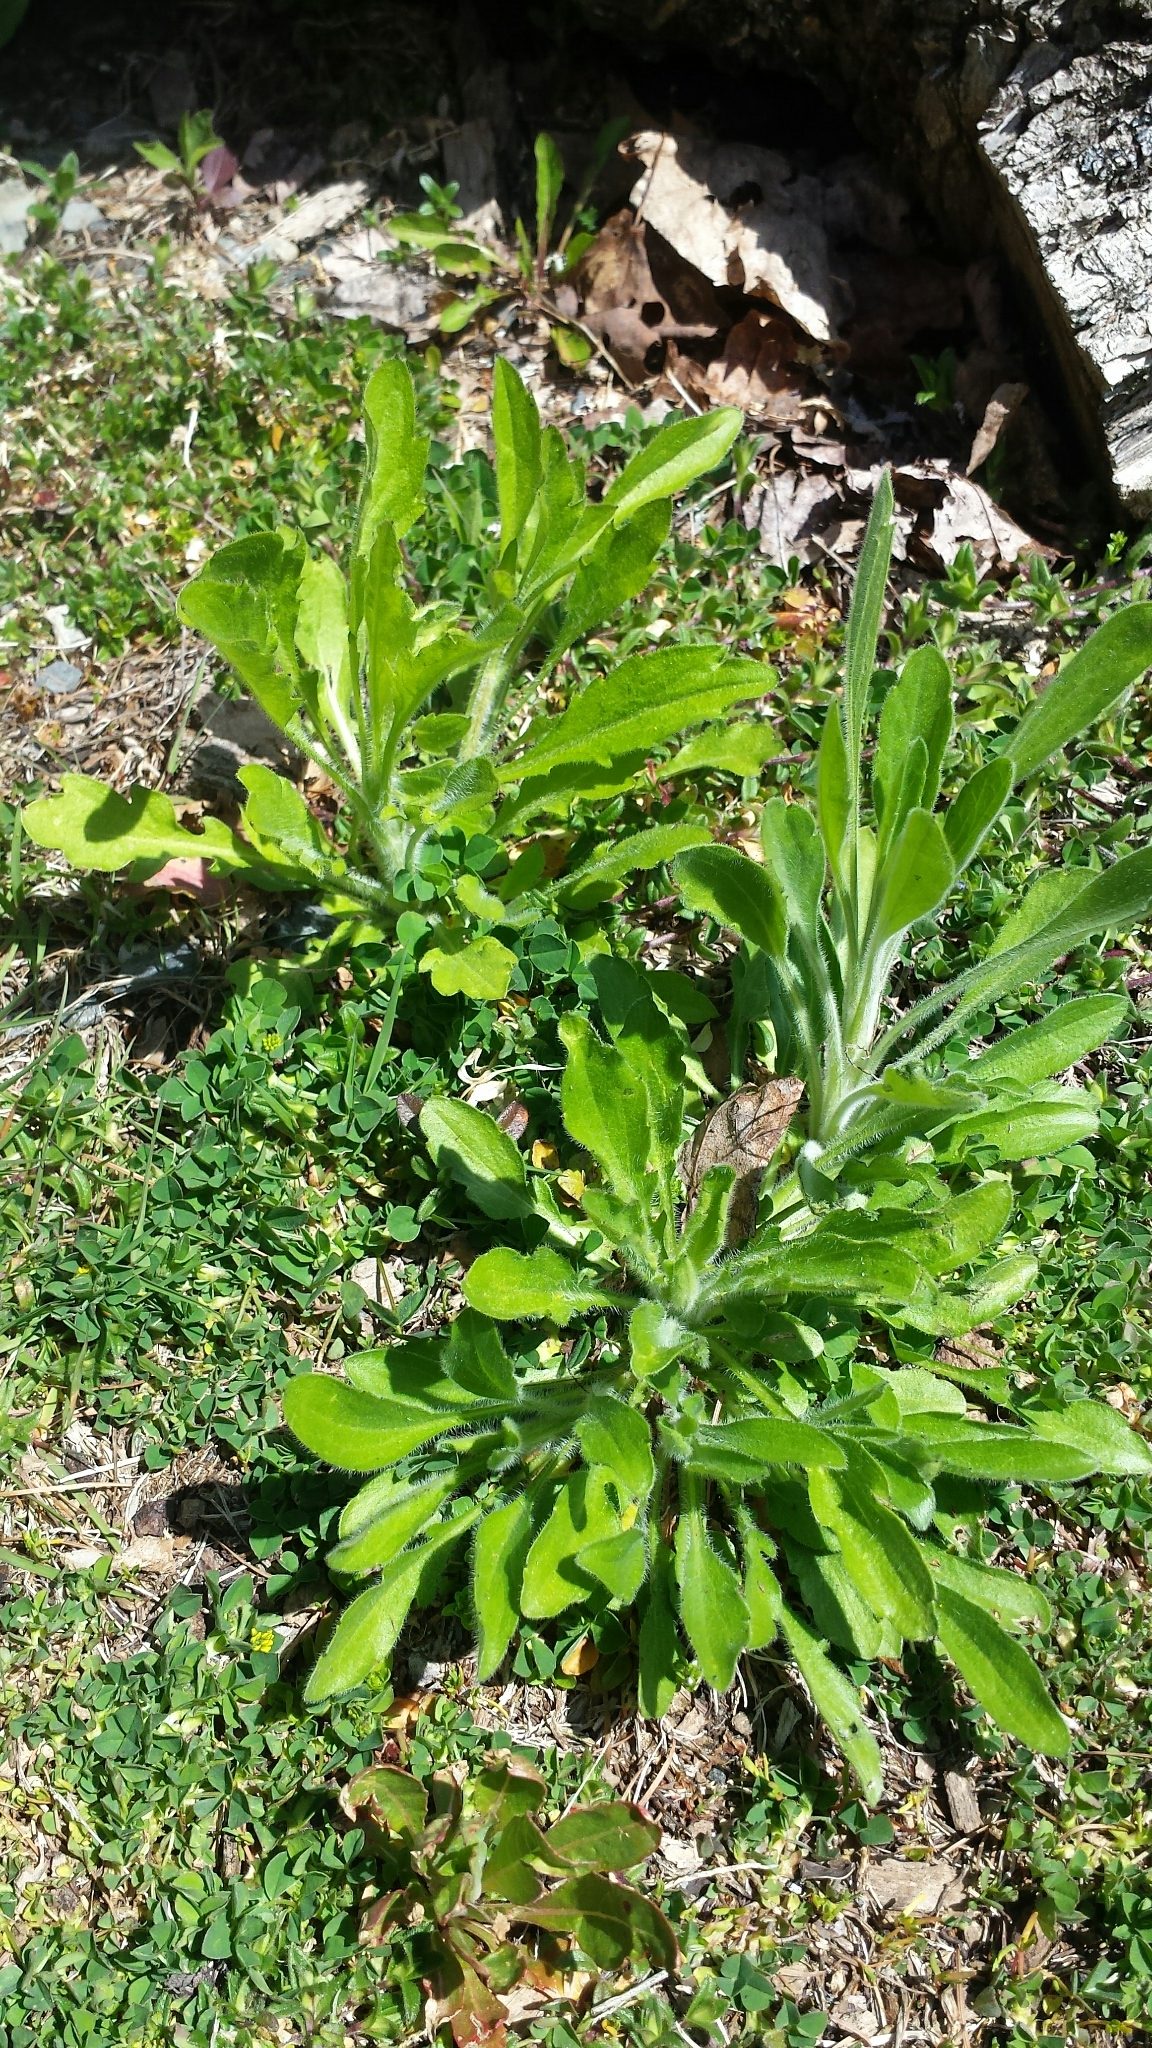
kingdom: Plantae
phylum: Tracheophyta
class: Magnoliopsida
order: Asterales
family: Asteraceae
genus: Erigeron
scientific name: Erigeron canadensis
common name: Canadian fleabane
